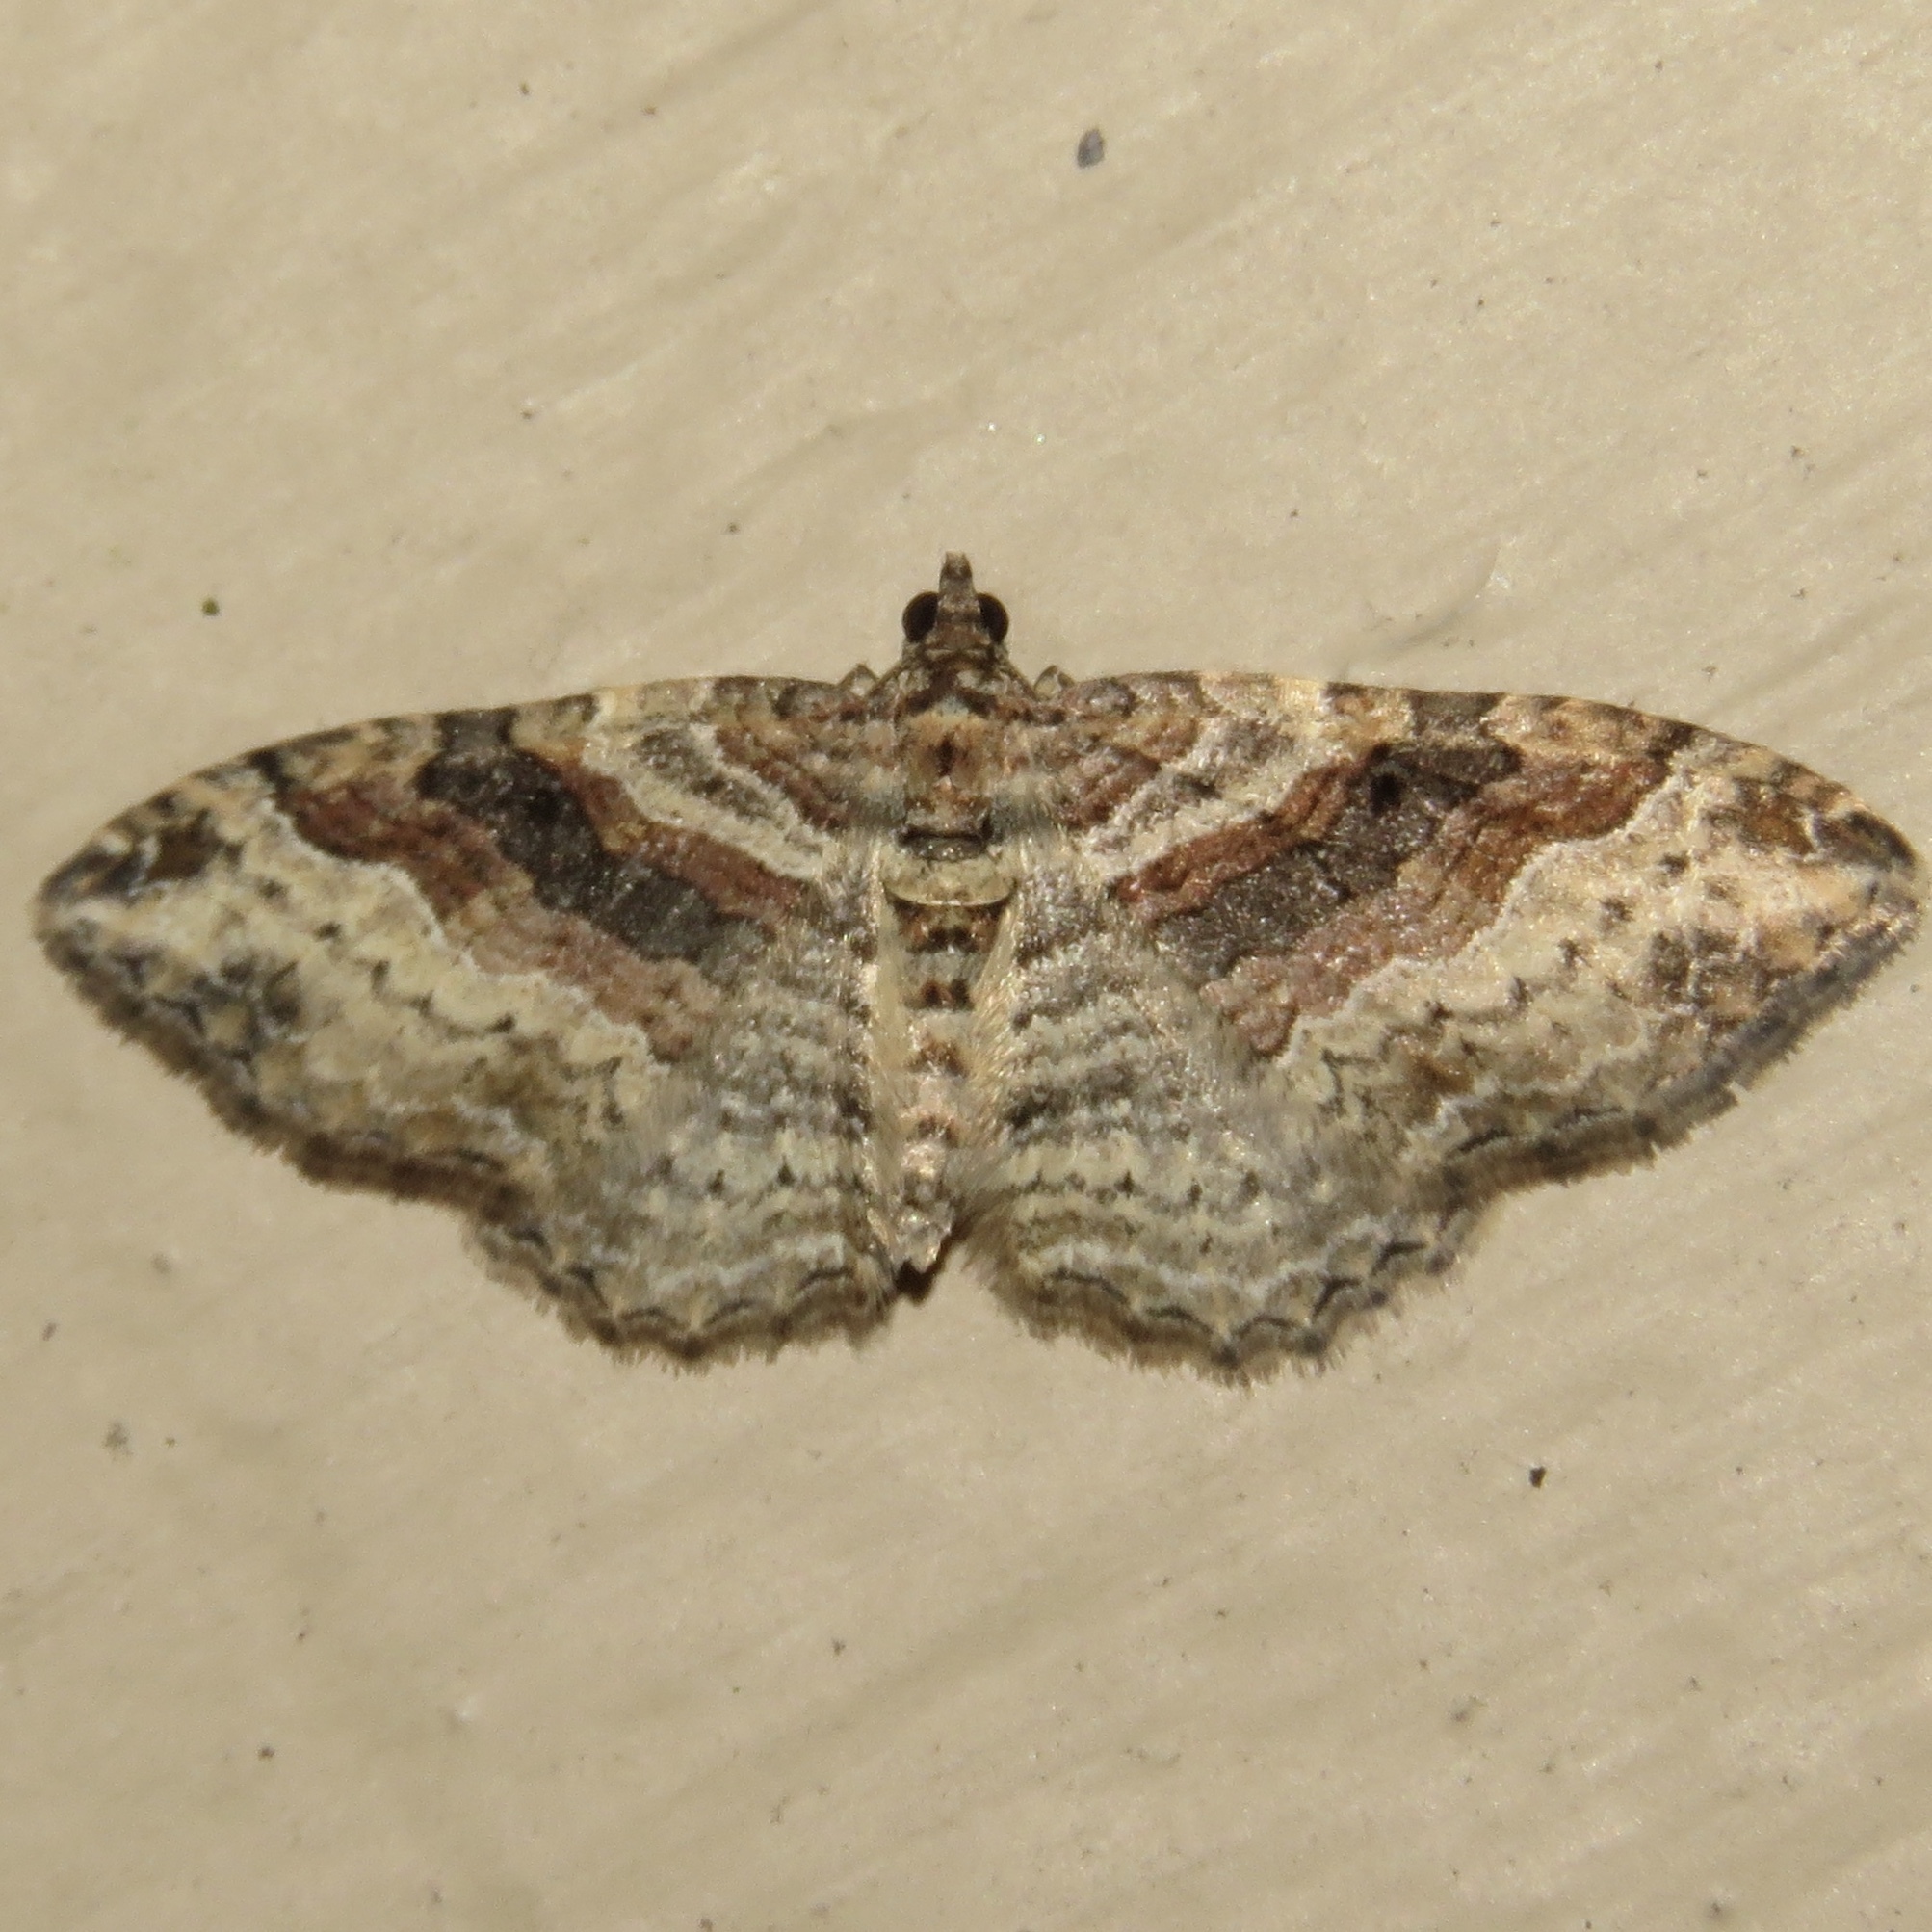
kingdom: Animalia
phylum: Arthropoda
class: Insecta
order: Lepidoptera
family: Geometridae
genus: Costaconvexa
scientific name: Costaconvexa centrostrigaria
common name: Bent-line carpet
